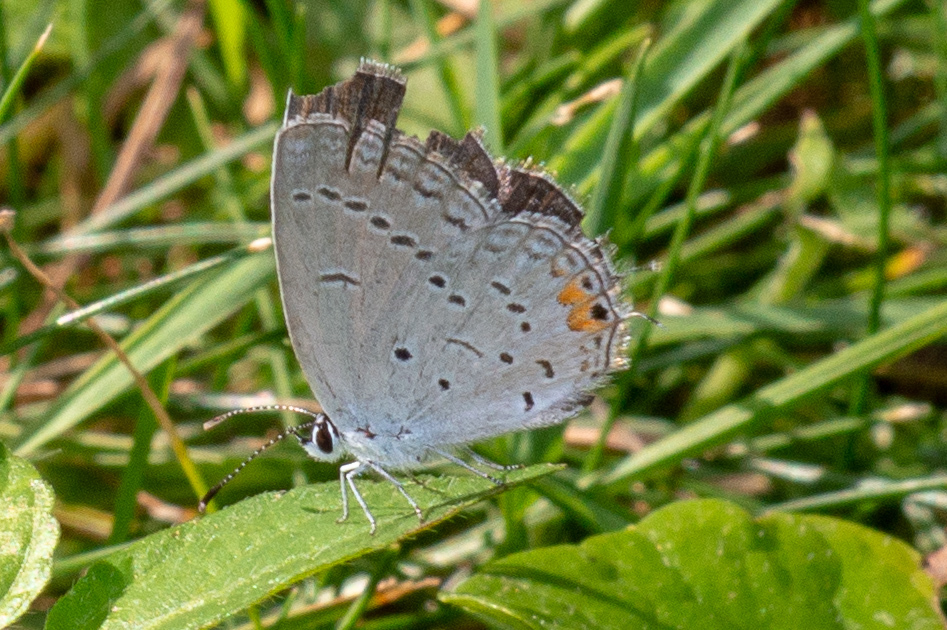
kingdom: Animalia
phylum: Arthropoda
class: Insecta
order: Lepidoptera
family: Lycaenidae
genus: Elkalyce
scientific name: Elkalyce comyntas
